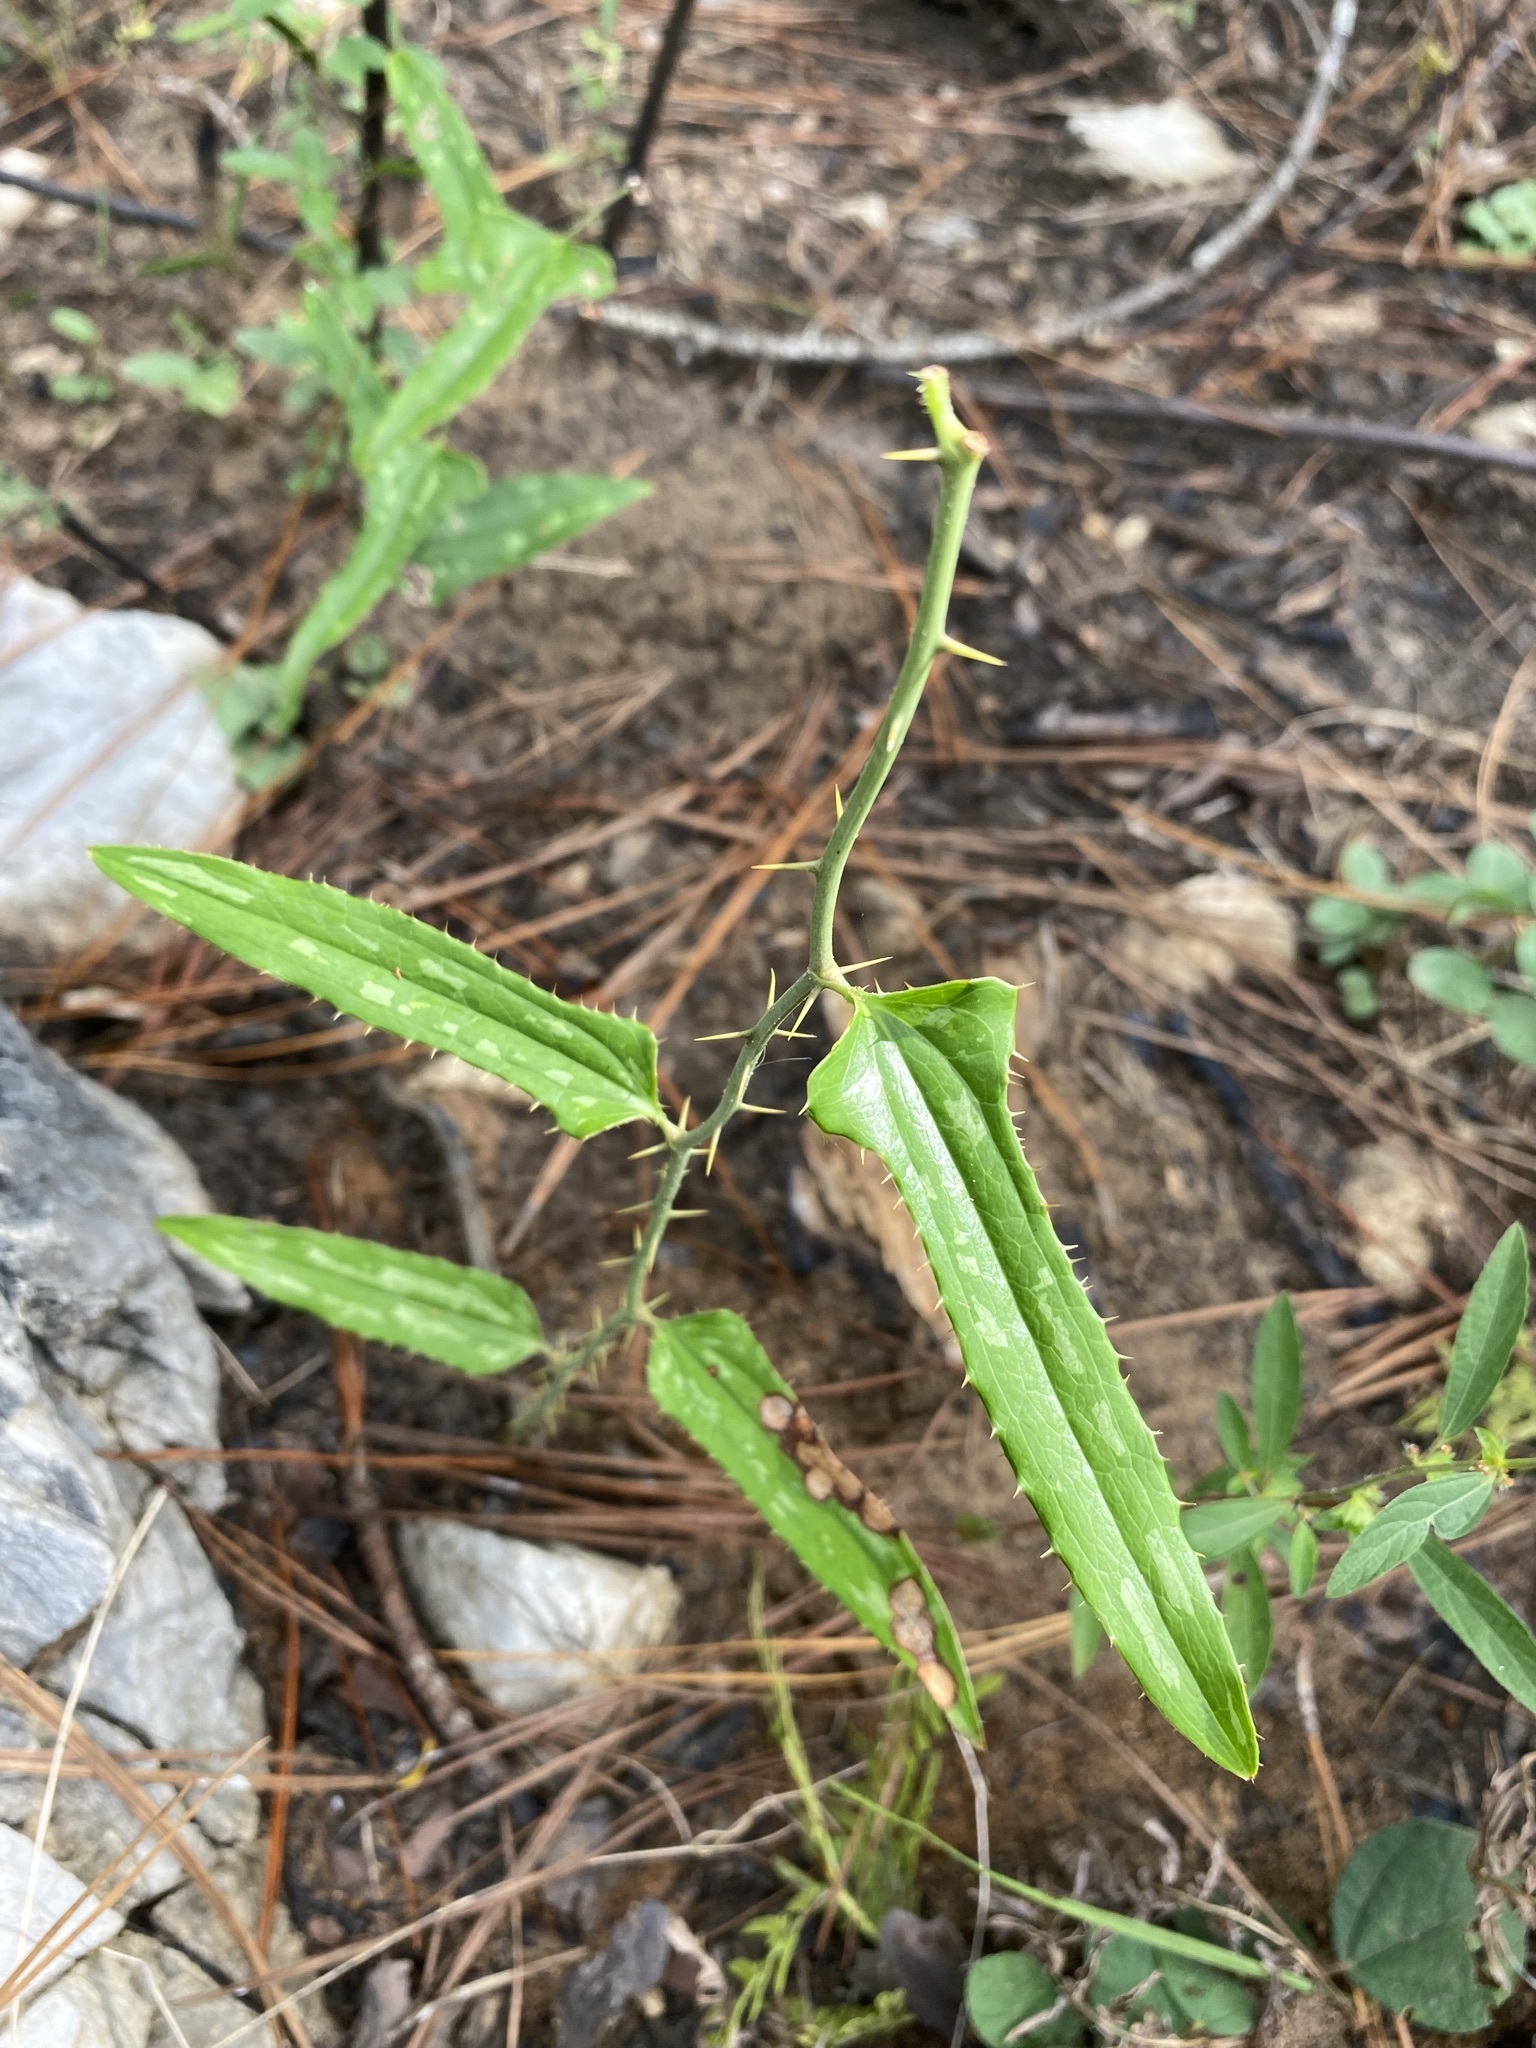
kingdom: Plantae
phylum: Tracheophyta
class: Liliopsida
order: Liliales
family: Smilacaceae
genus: Smilax
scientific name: Smilax bona-nox
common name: Catbrier
